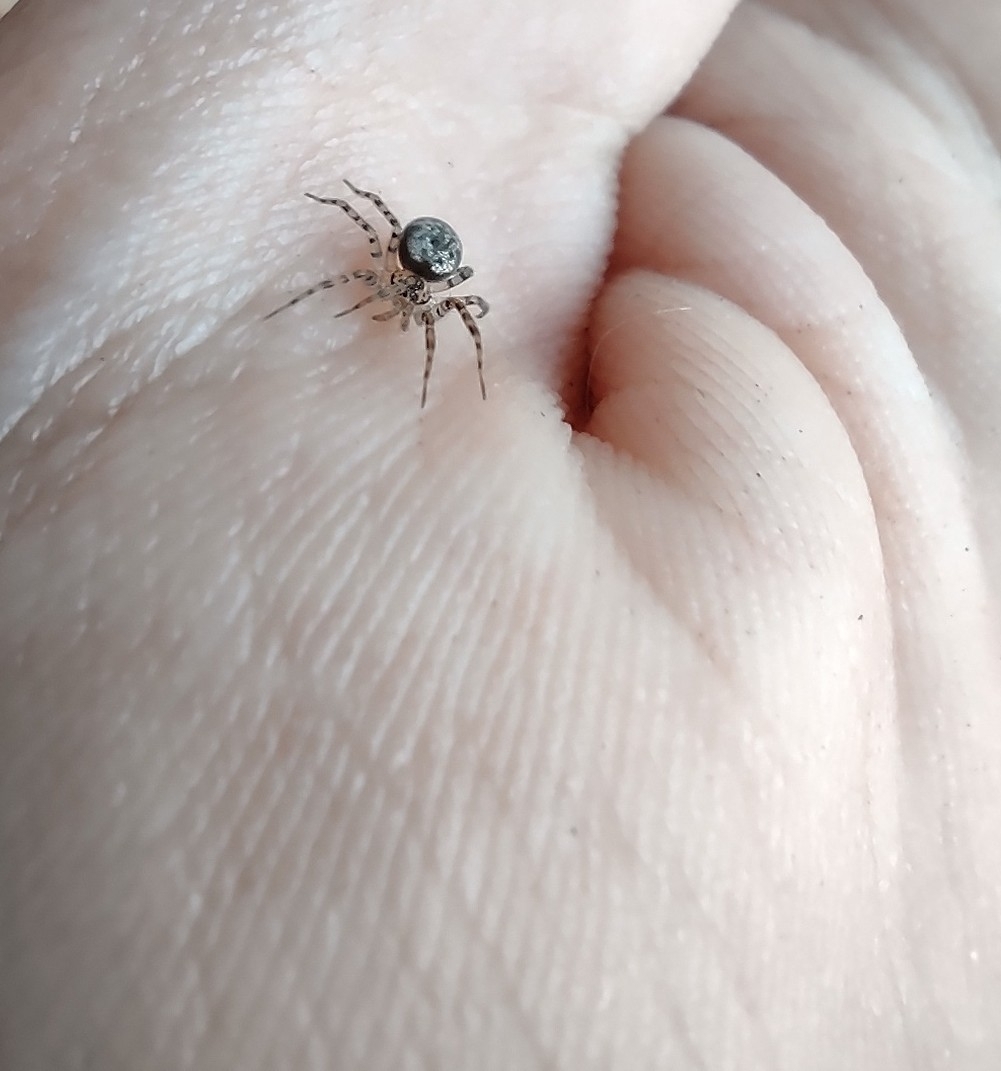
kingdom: Animalia
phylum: Arthropoda
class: Arachnida
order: Araneae
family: Oecobiidae
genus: Oecobius
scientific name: Oecobius navus
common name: Flatmesh weaver
